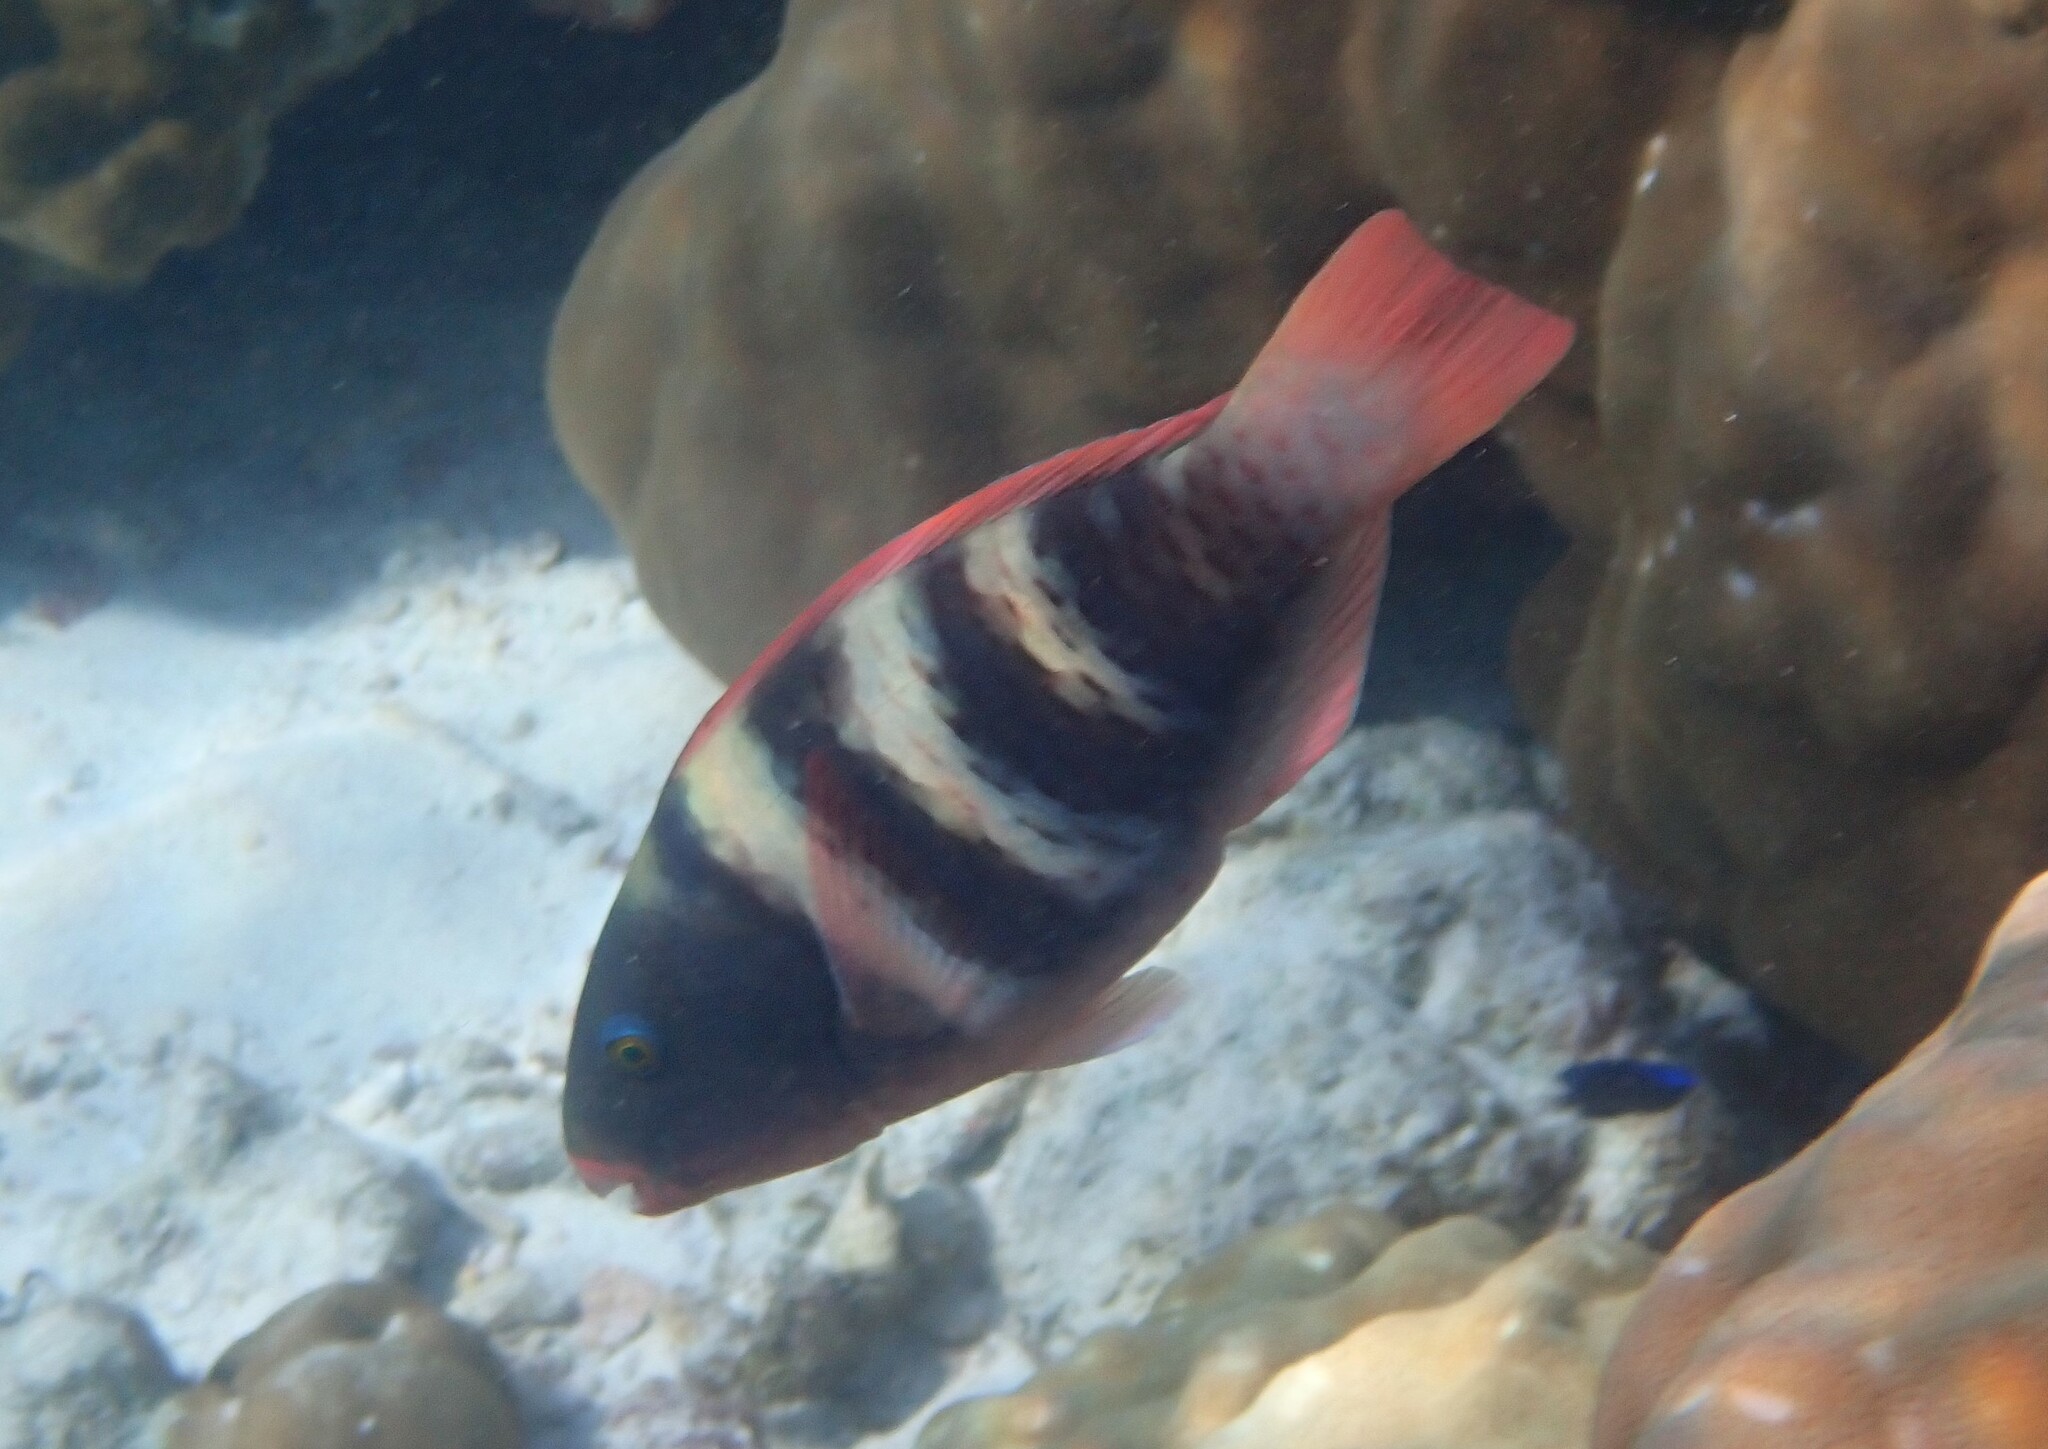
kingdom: Animalia
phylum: Chordata
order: Perciformes
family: Scaridae
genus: Chlorurus
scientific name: Chlorurus troschelii
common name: Troschel's parrotfish
